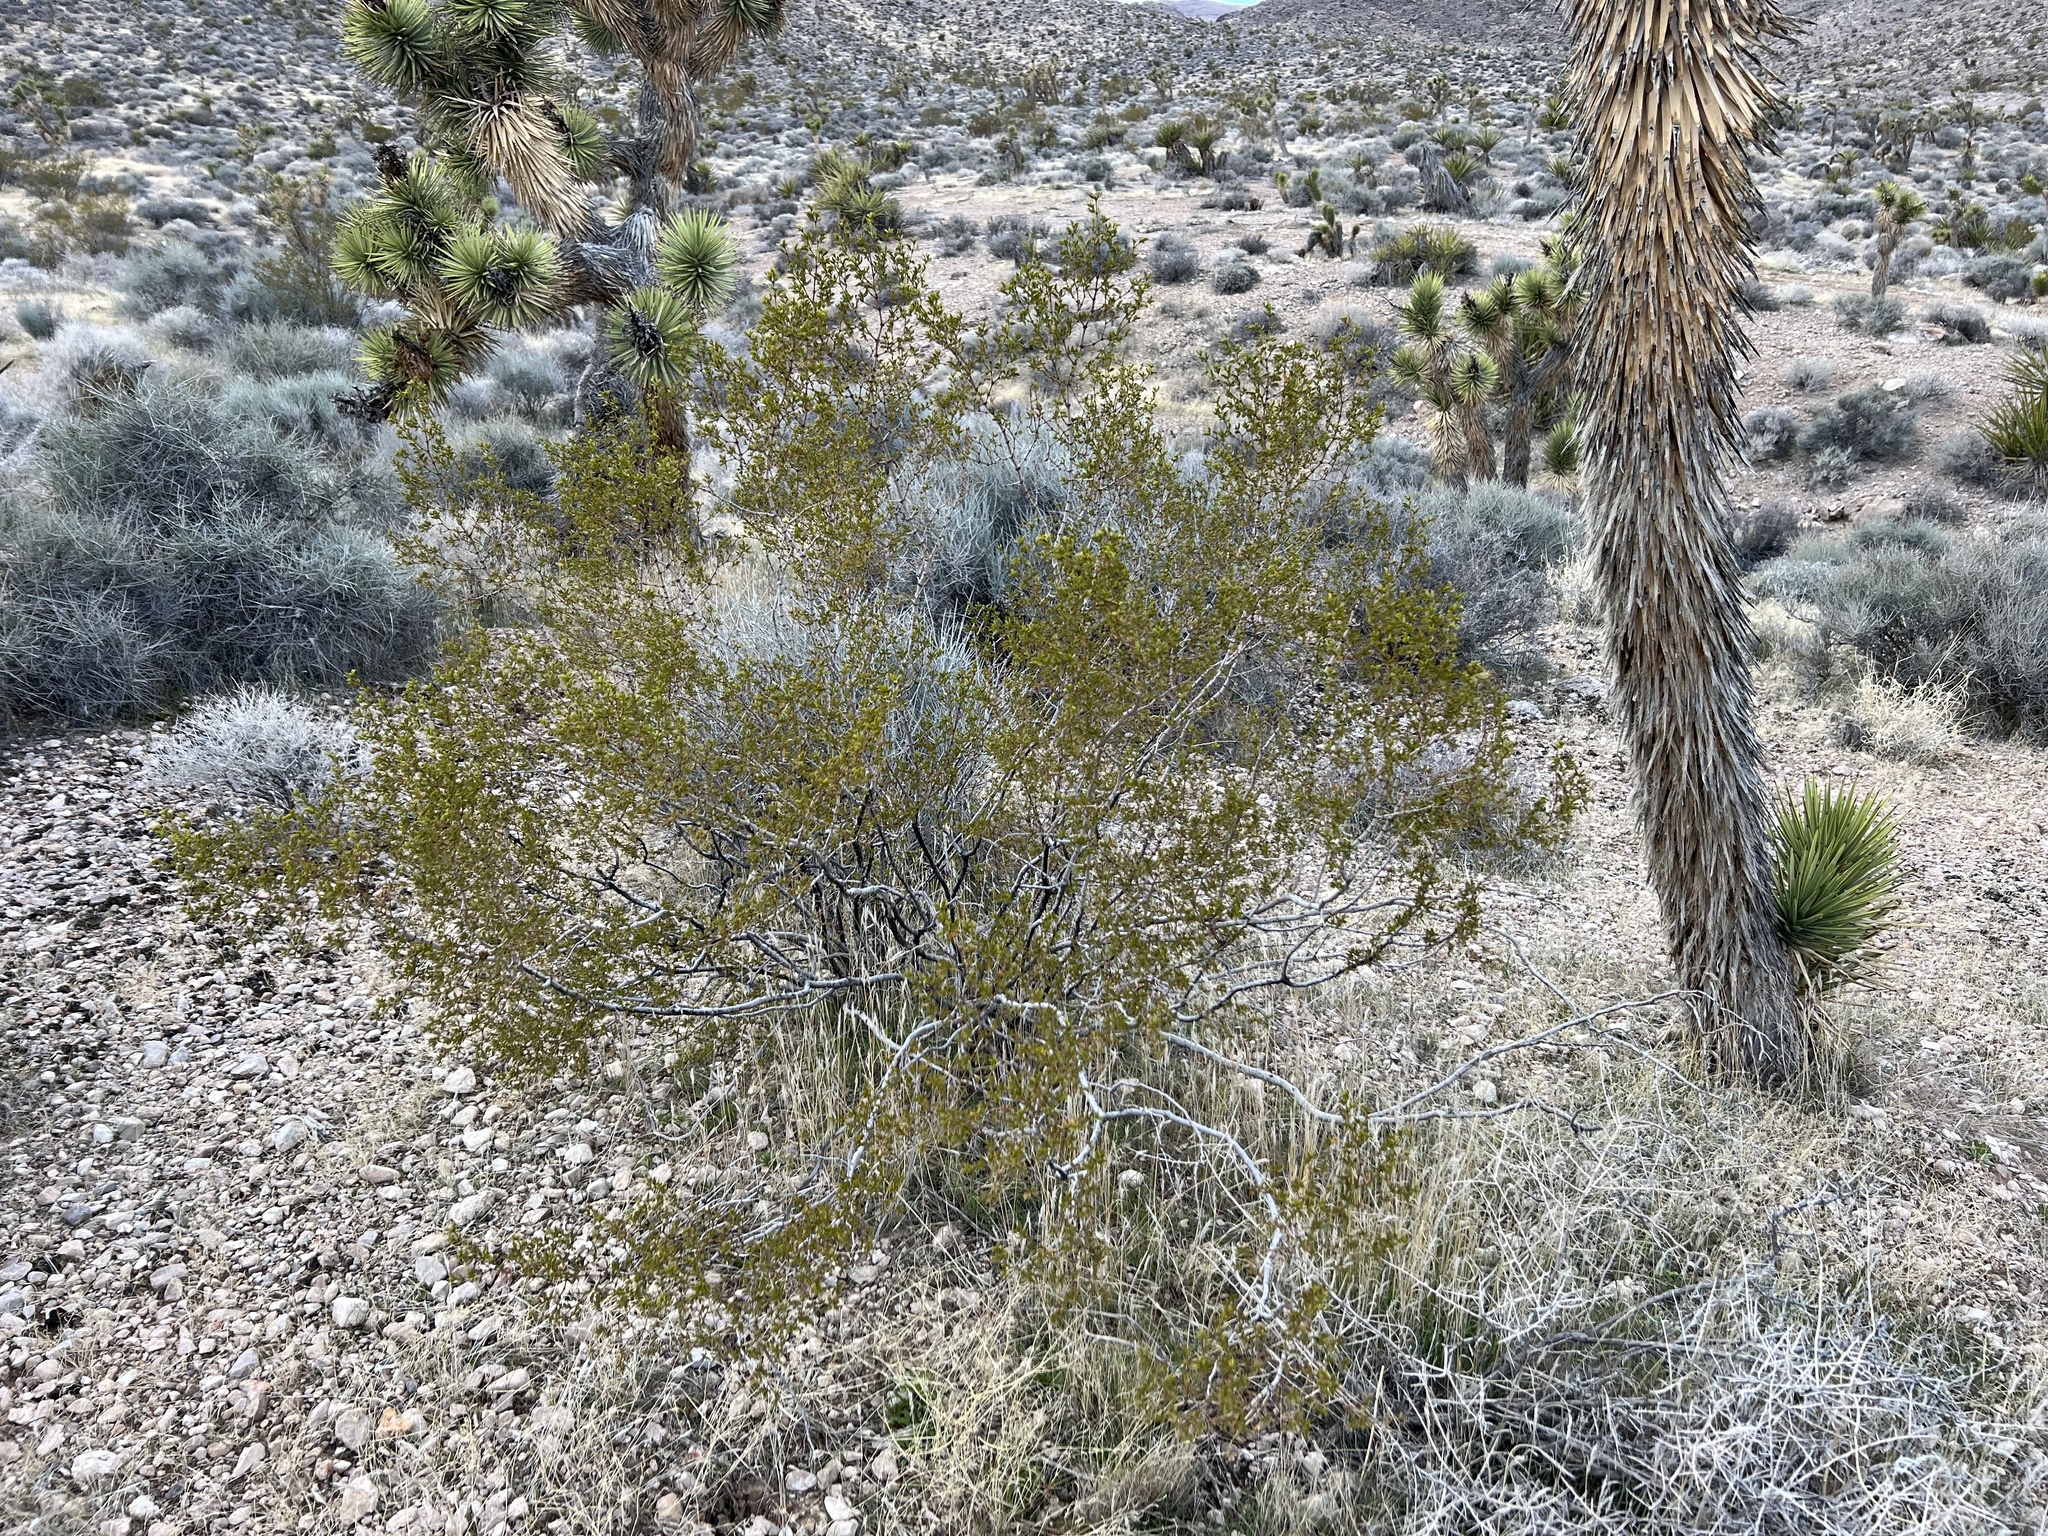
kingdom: Plantae
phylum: Tracheophyta
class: Magnoliopsida
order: Zygophyllales
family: Zygophyllaceae
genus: Larrea
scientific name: Larrea tridentata
